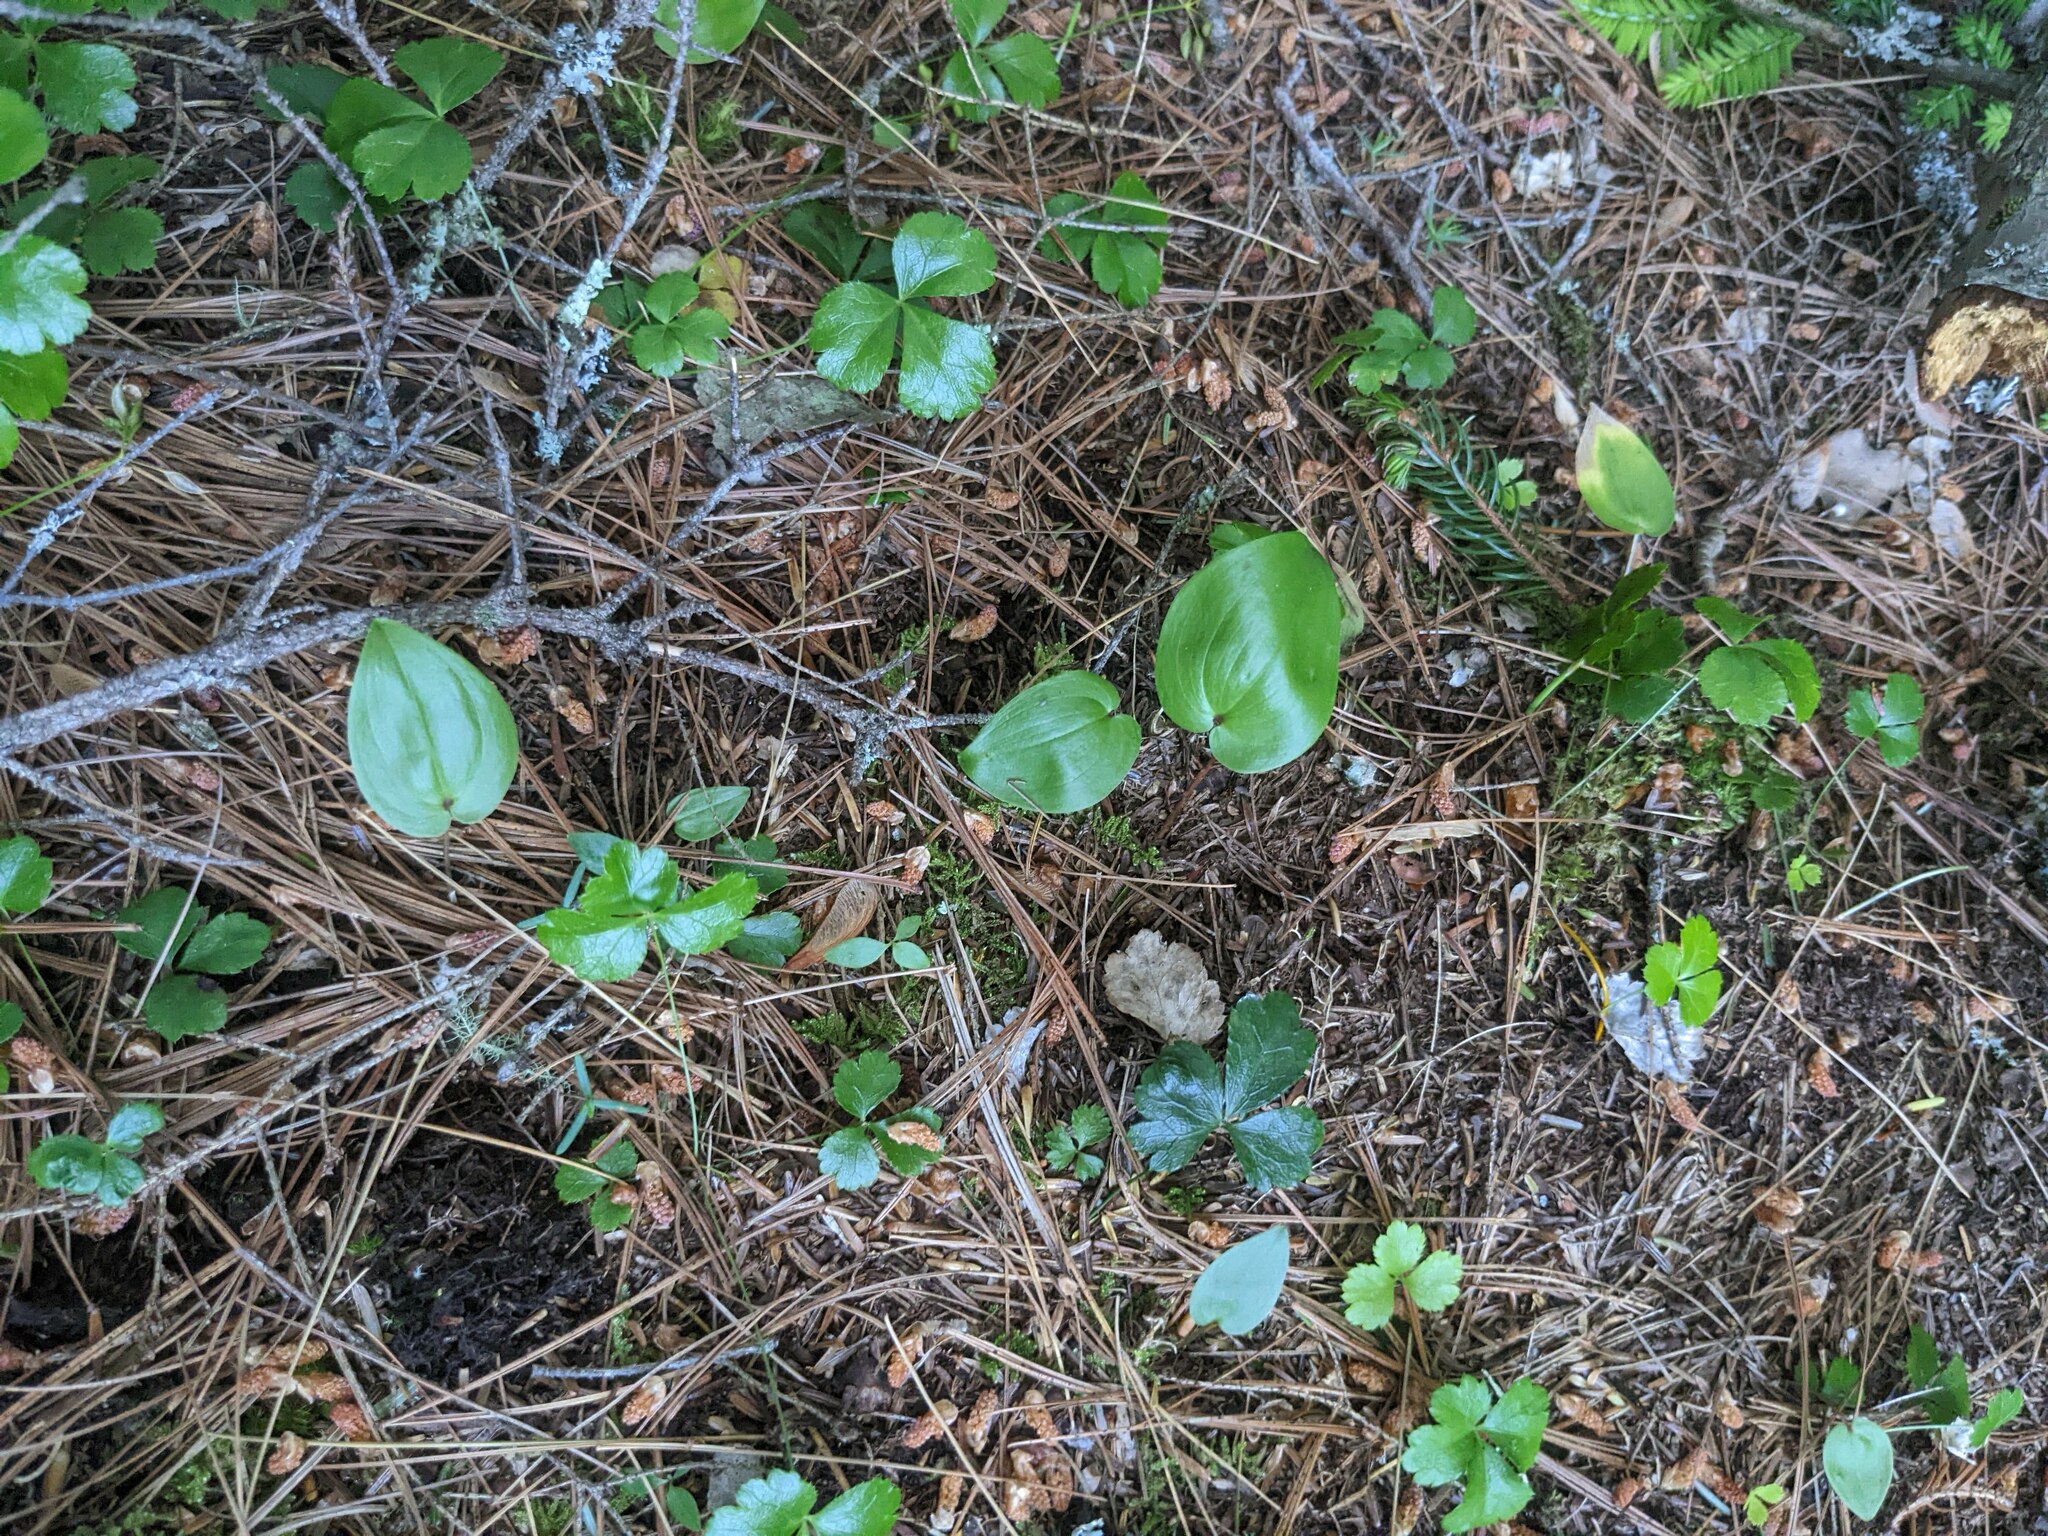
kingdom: Plantae
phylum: Tracheophyta
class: Liliopsida
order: Asparagales
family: Asparagaceae
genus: Maianthemum
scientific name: Maianthemum canadense
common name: False lily-of-the-valley
